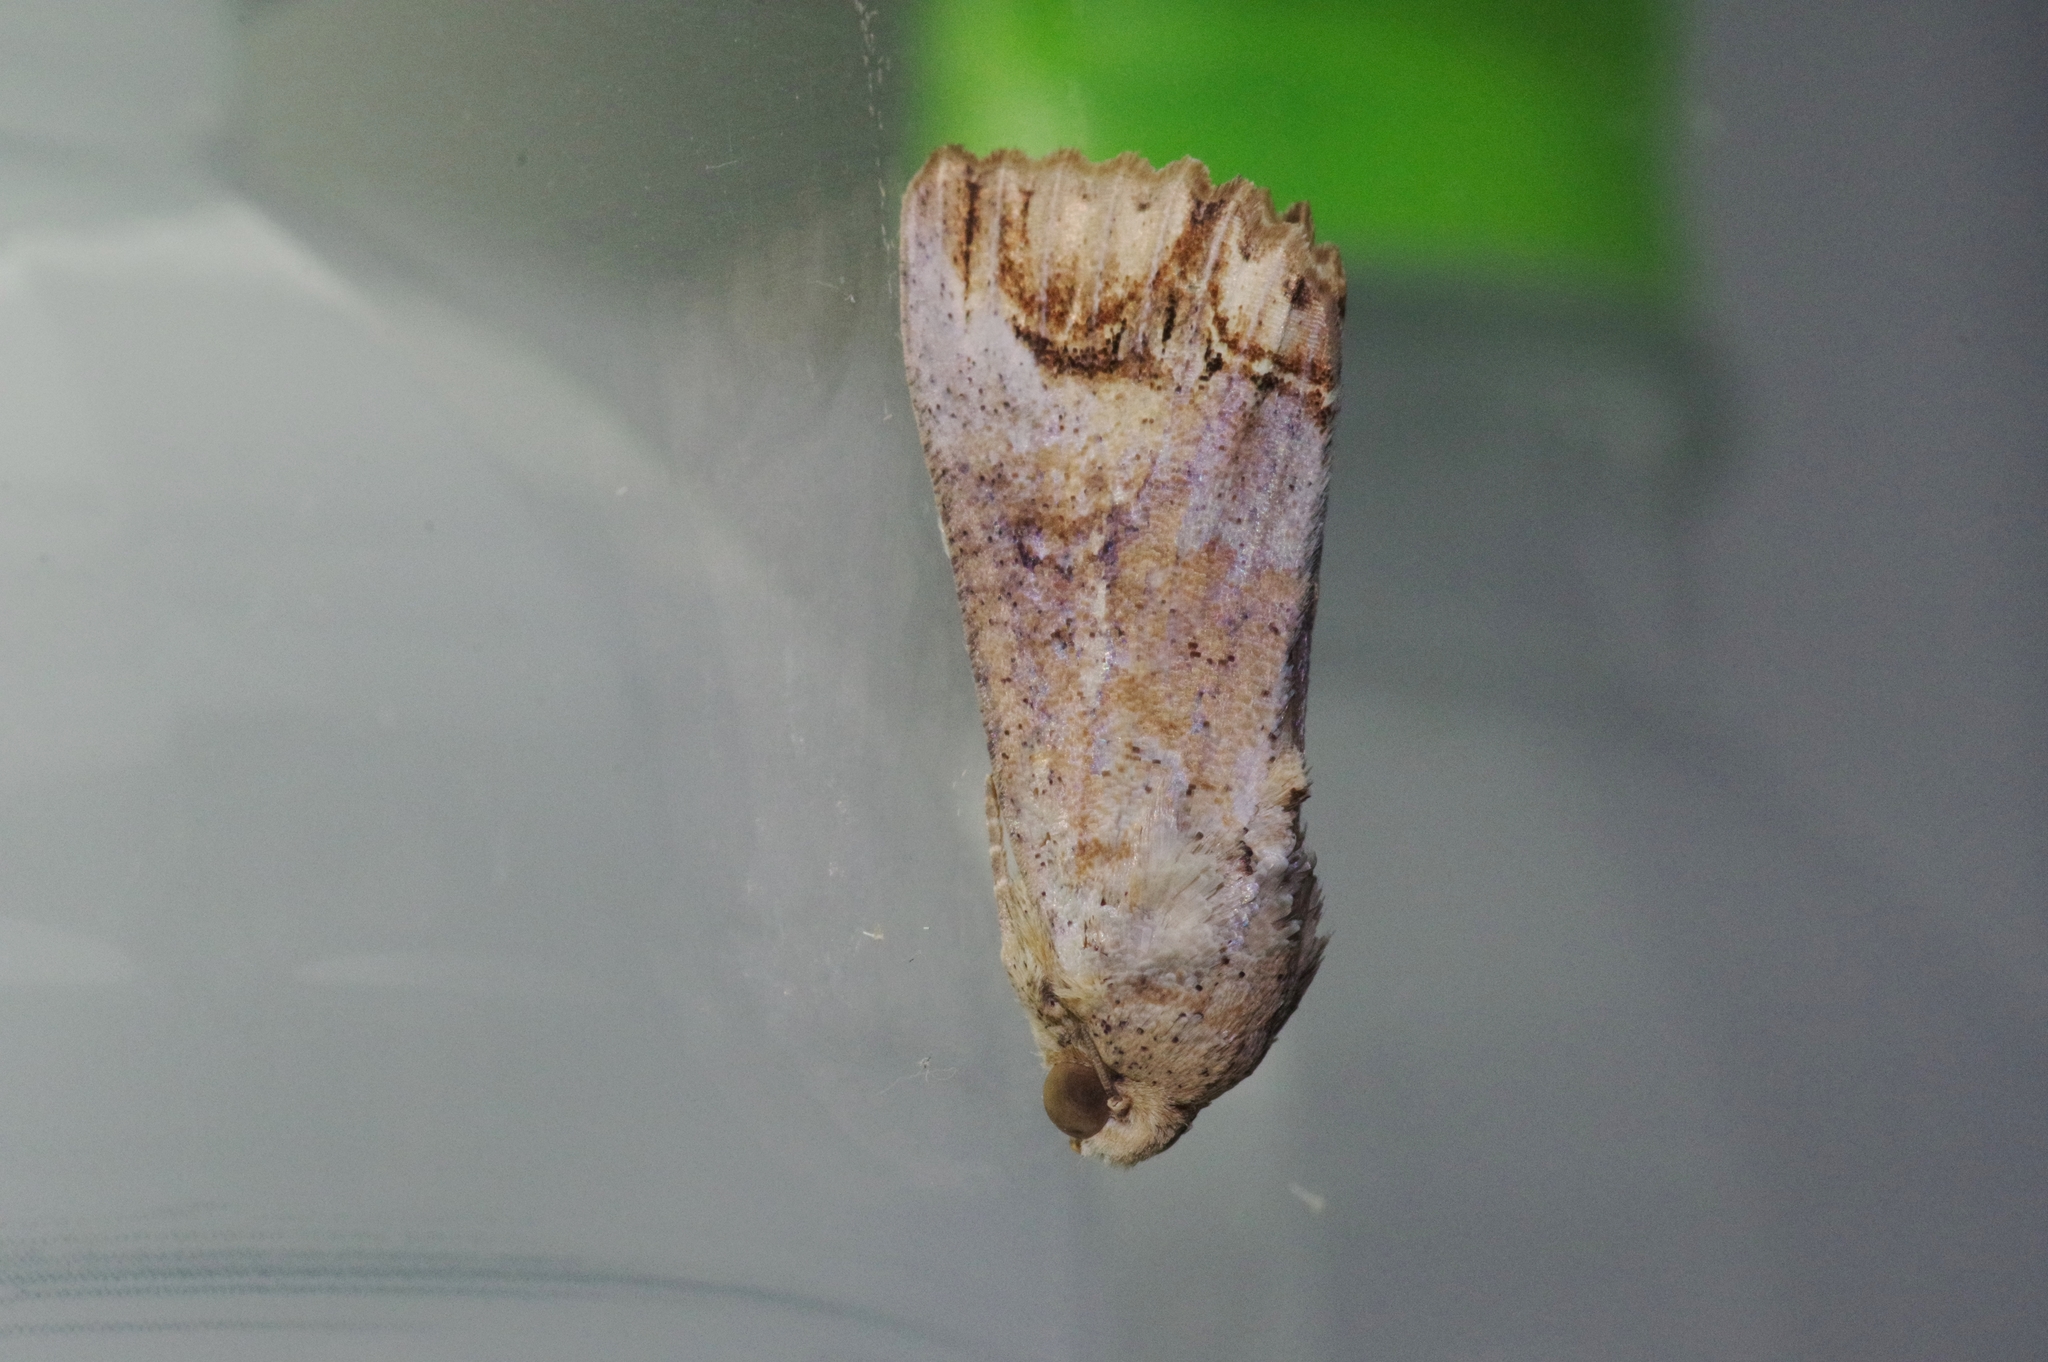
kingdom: Animalia
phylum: Arthropoda
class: Insecta
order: Lepidoptera
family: Erebidae
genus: Hypocala
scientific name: Hypocala biarcuata
